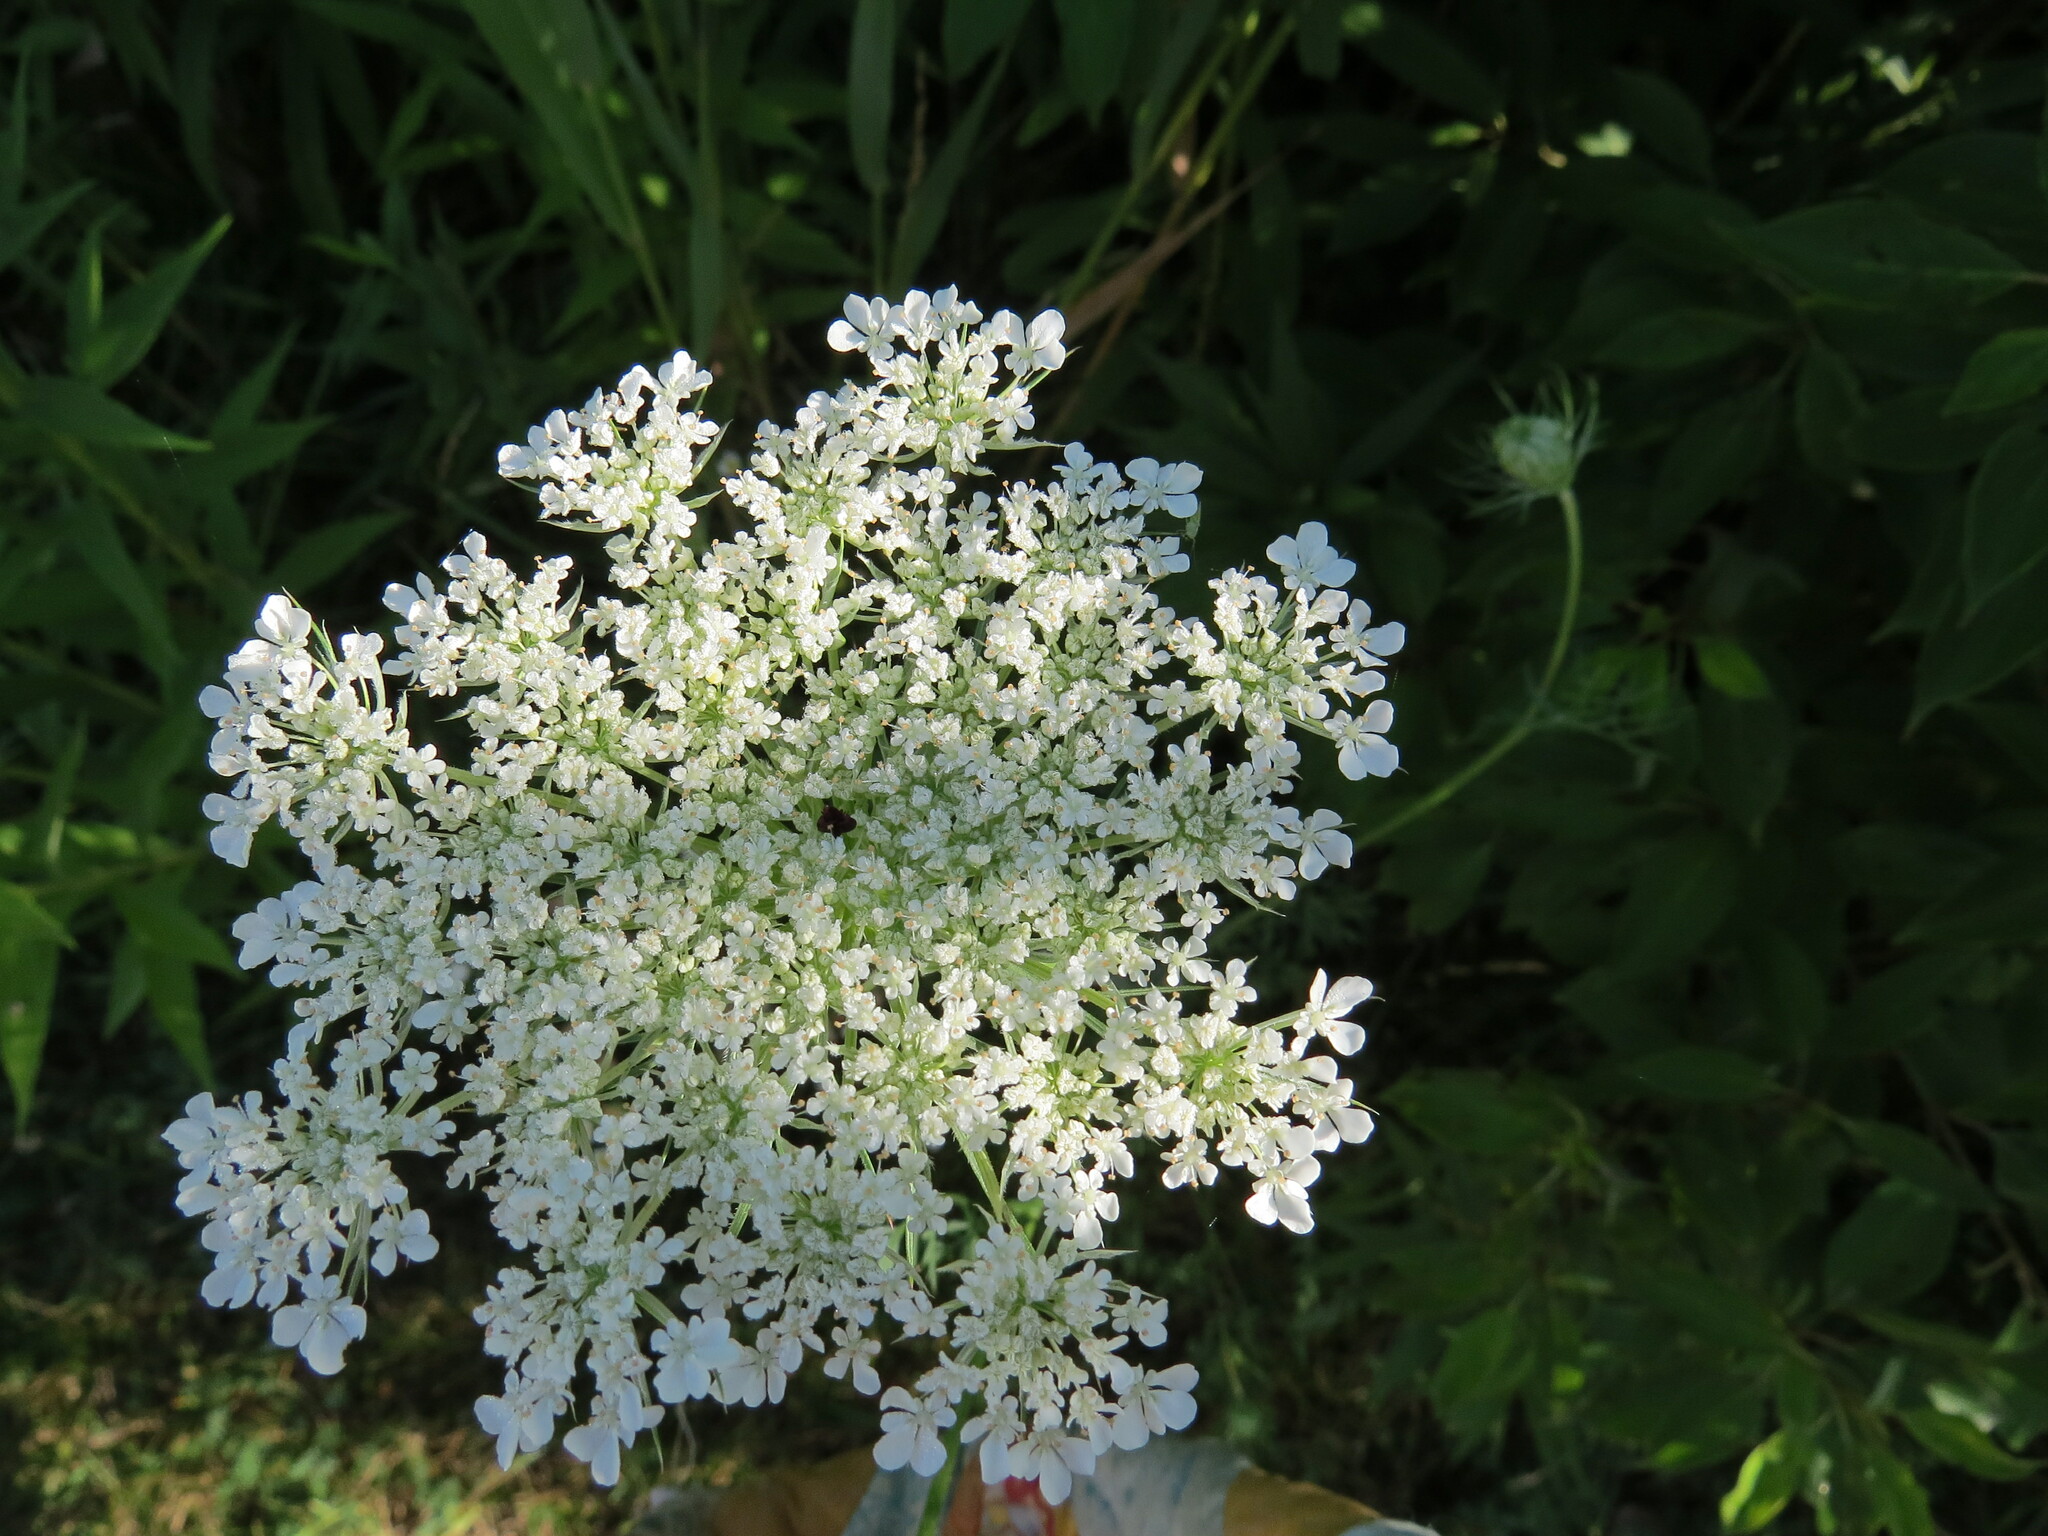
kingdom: Plantae
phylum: Tracheophyta
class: Magnoliopsida
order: Apiales
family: Apiaceae
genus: Daucus
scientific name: Daucus carota
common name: Wild carrot
